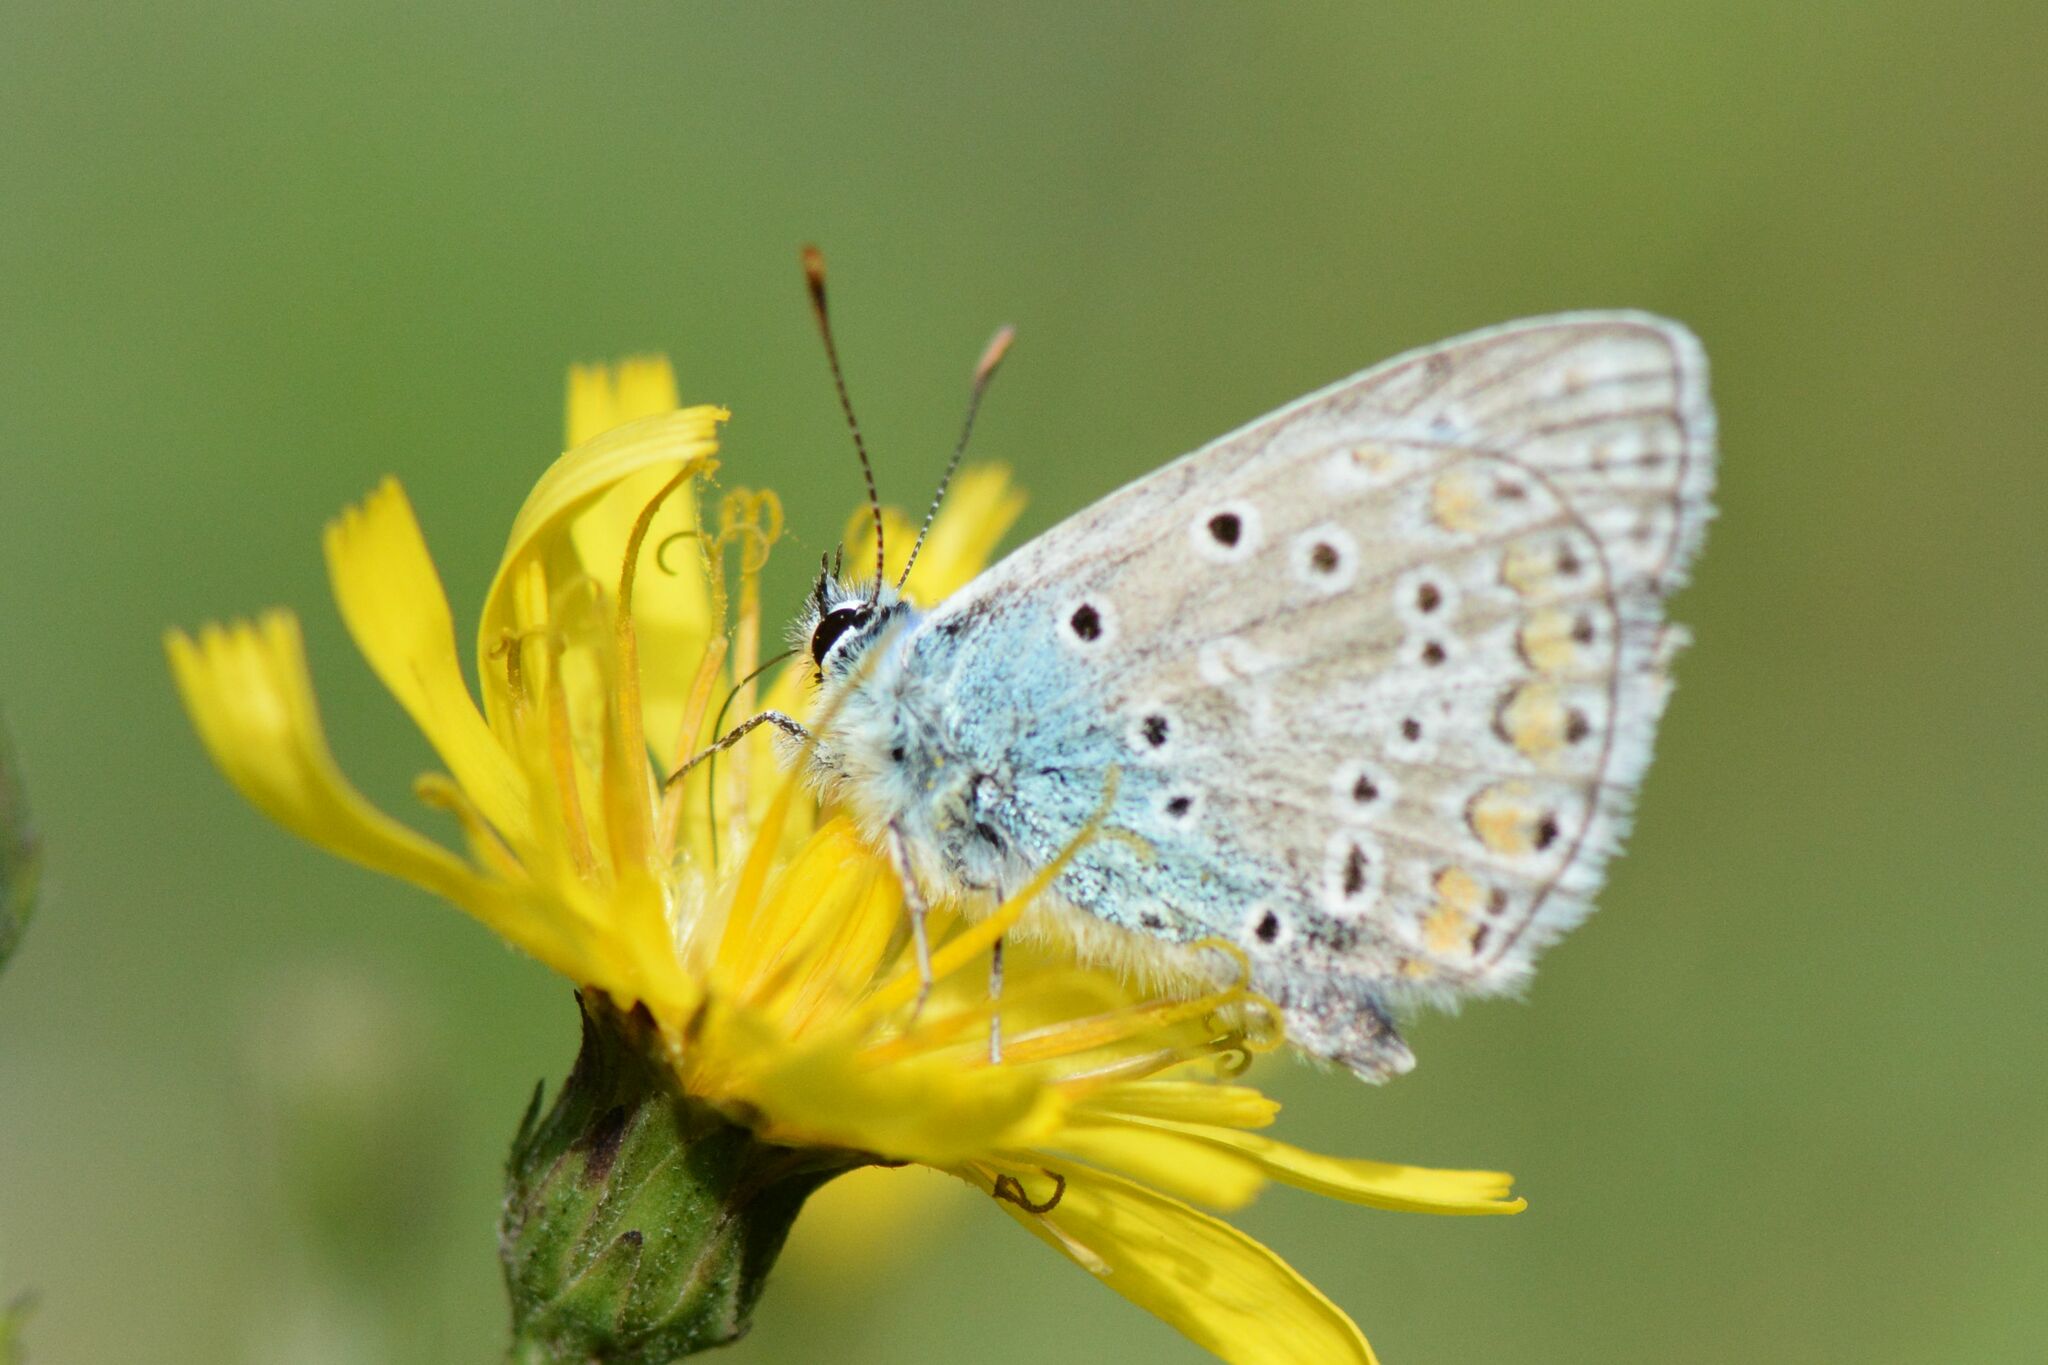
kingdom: Animalia
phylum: Arthropoda
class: Insecta
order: Lepidoptera
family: Lycaenidae
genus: Polyommatus
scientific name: Polyommatus icarus
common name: Common blue
